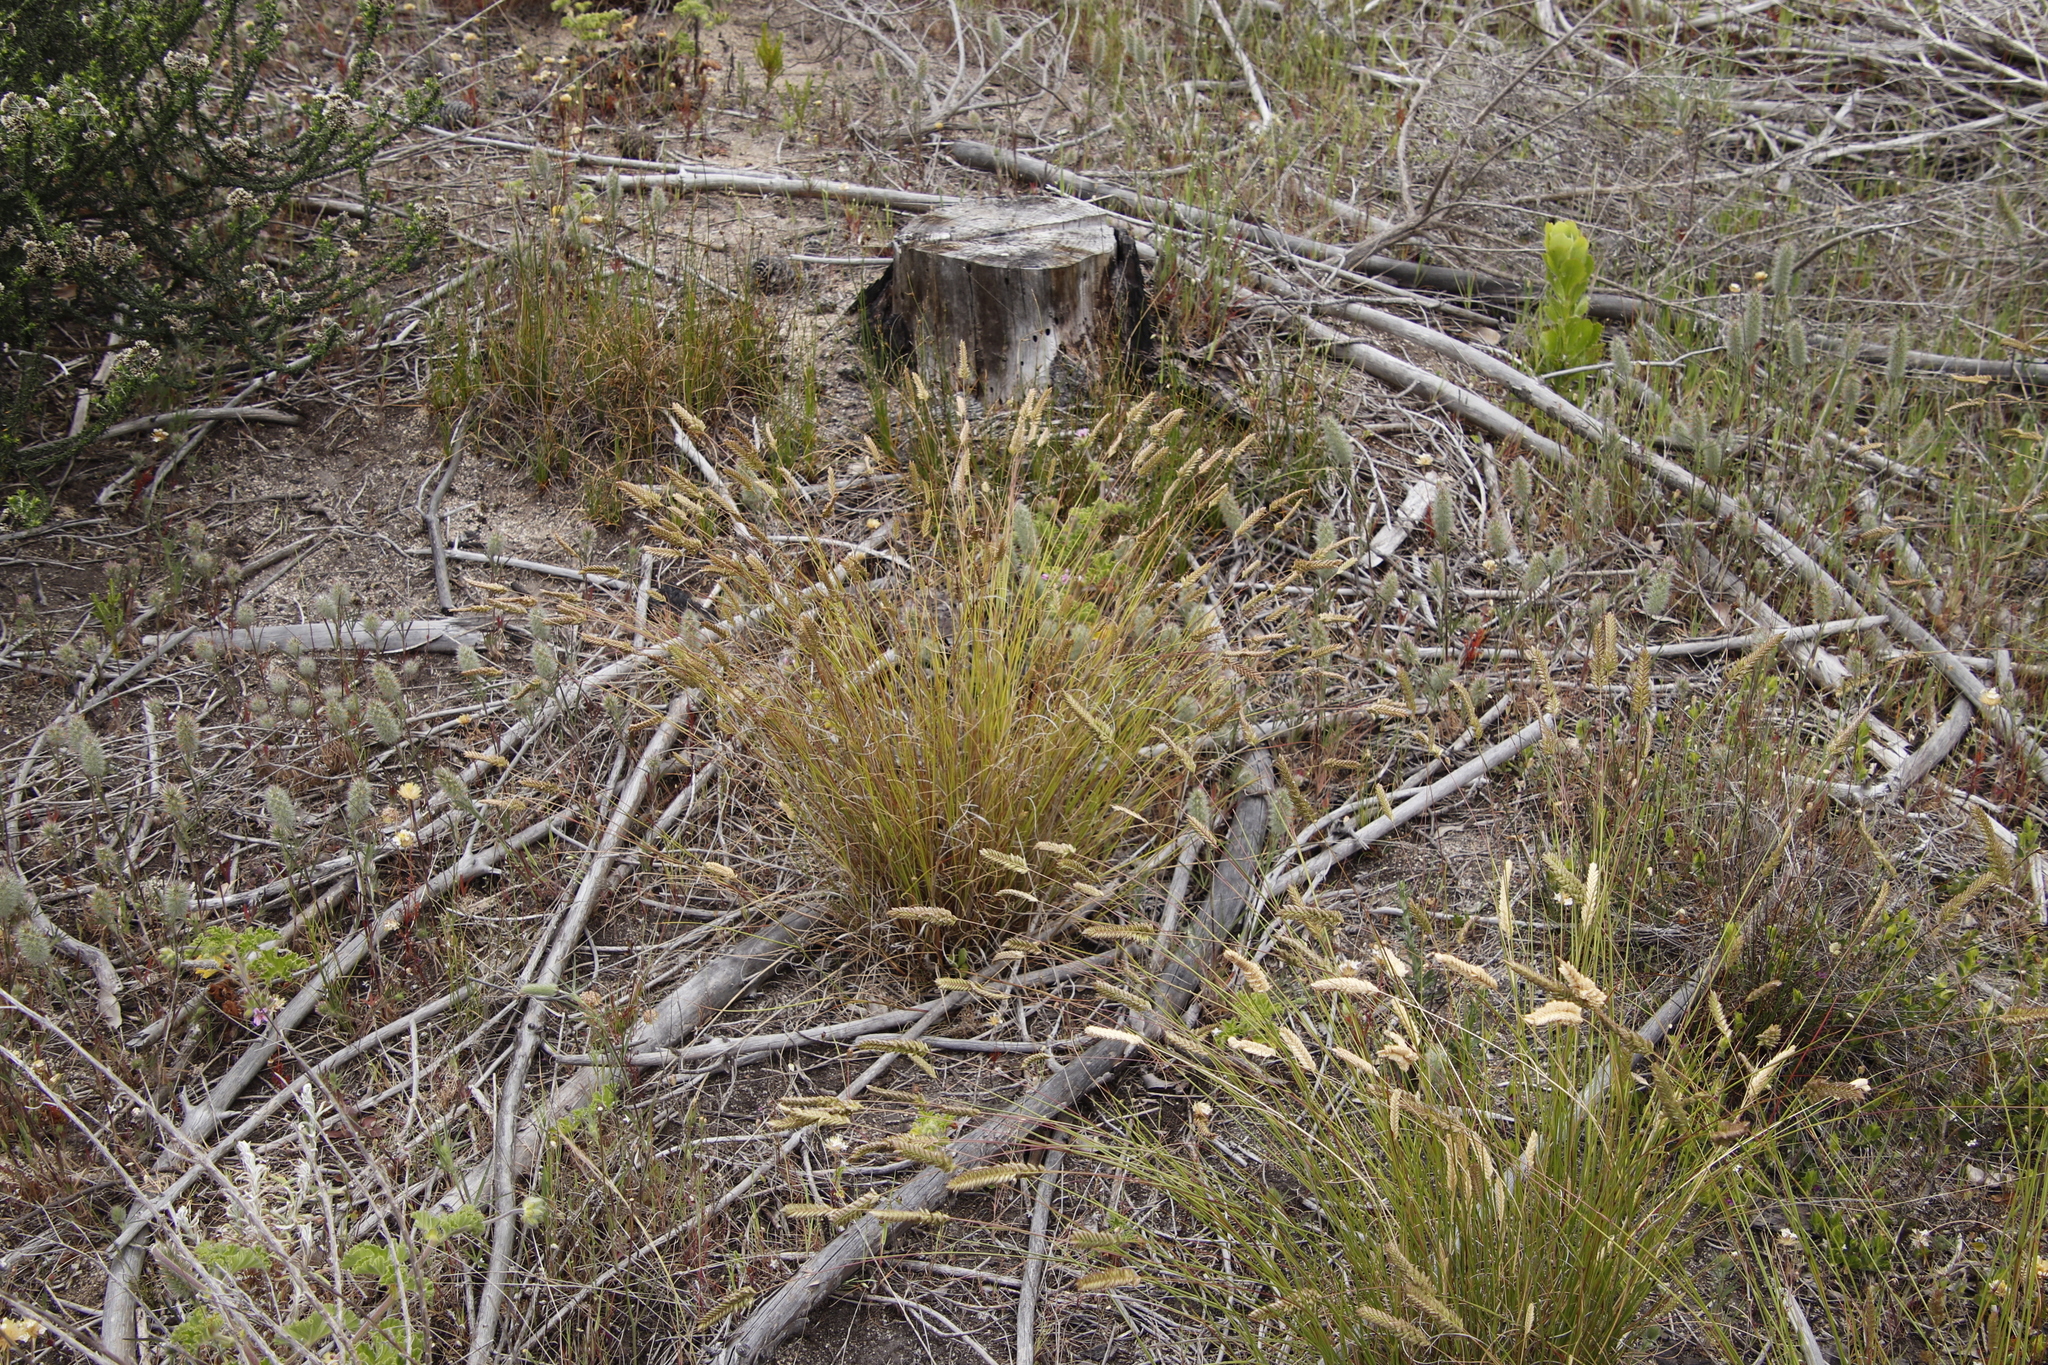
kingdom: Plantae
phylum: Tracheophyta
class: Liliopsida
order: Poales
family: Poaceae
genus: Tribolium
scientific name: Tribolium uniolae
